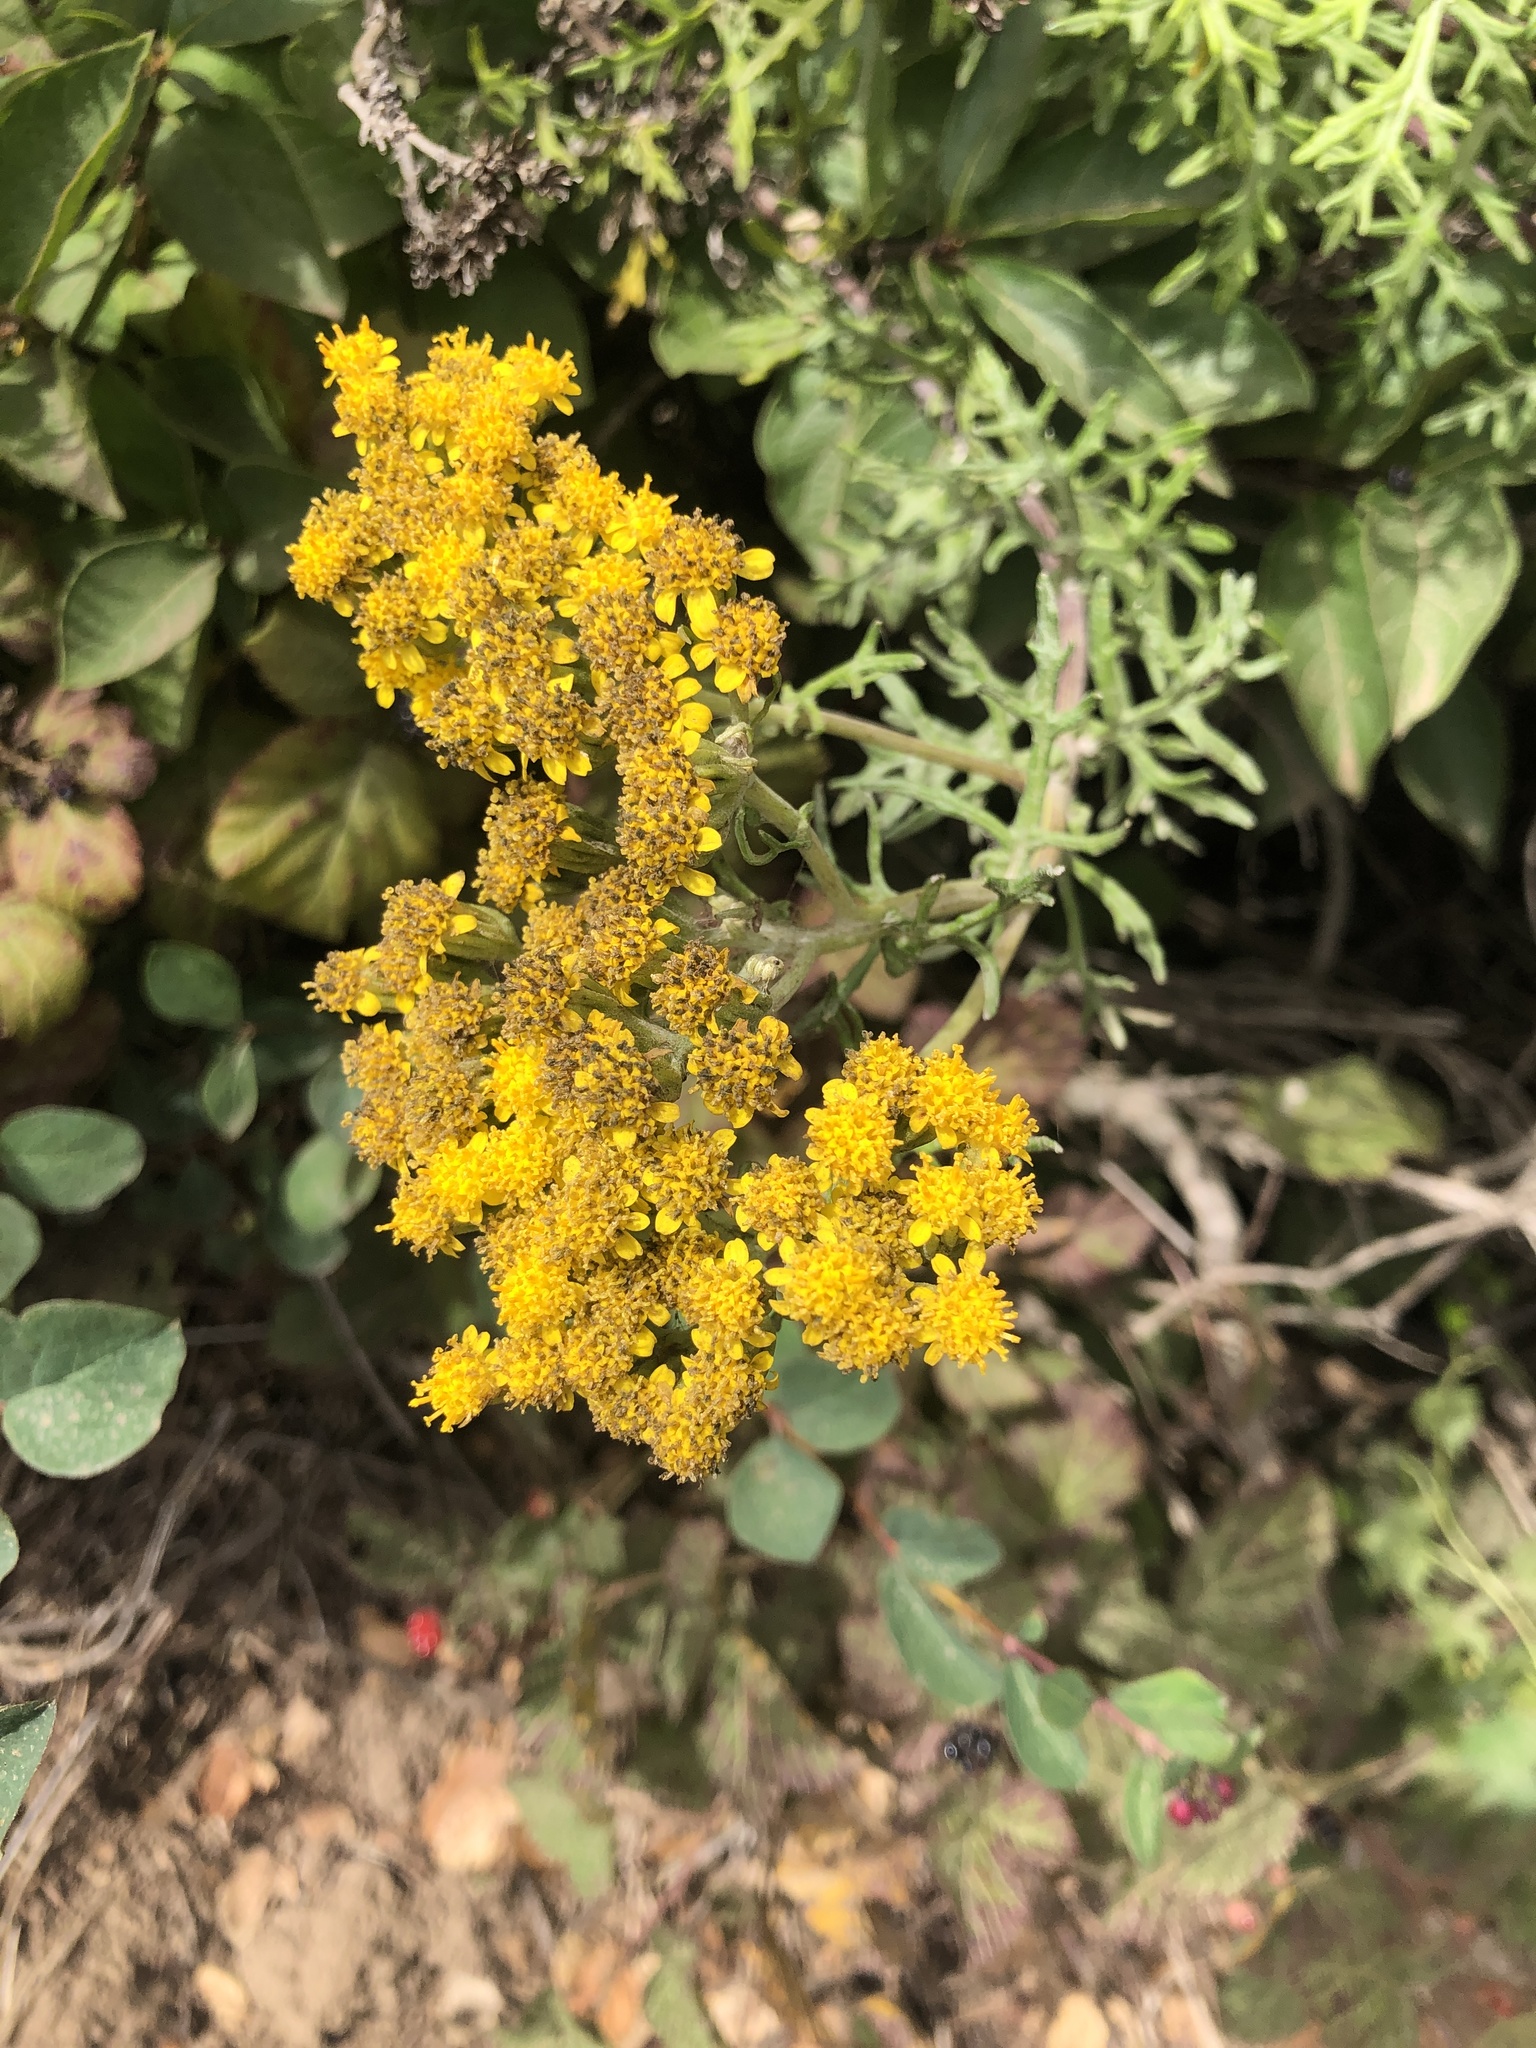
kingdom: Plantae
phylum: Tracheophyta
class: Magnoliopsida
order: Asterales
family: Asteraceae
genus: Eriophyllum
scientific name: Eriophyllum staechadifolium
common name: Lizardtail
